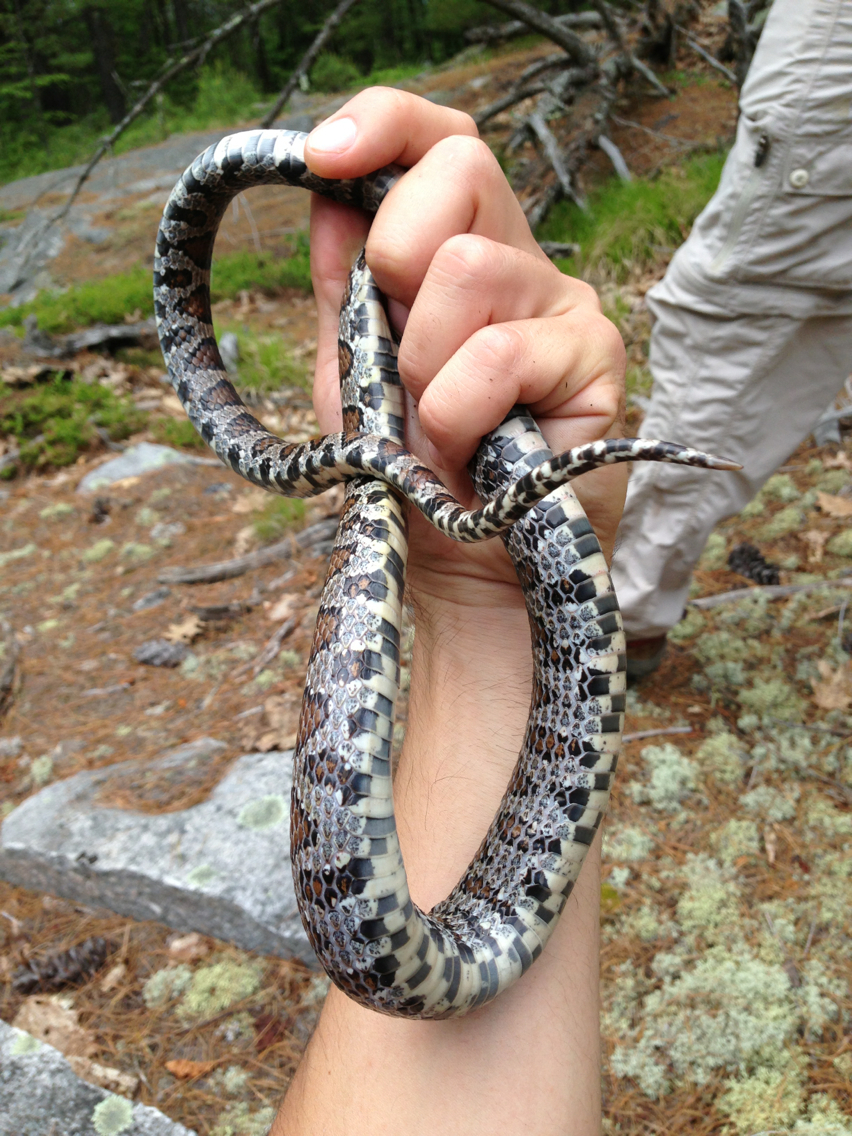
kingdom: Animalia
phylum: Chordata
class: Squamata
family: Colubridae
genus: Lampropeltis
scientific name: Lampropeltis triangulum
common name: Eastern milksnake
